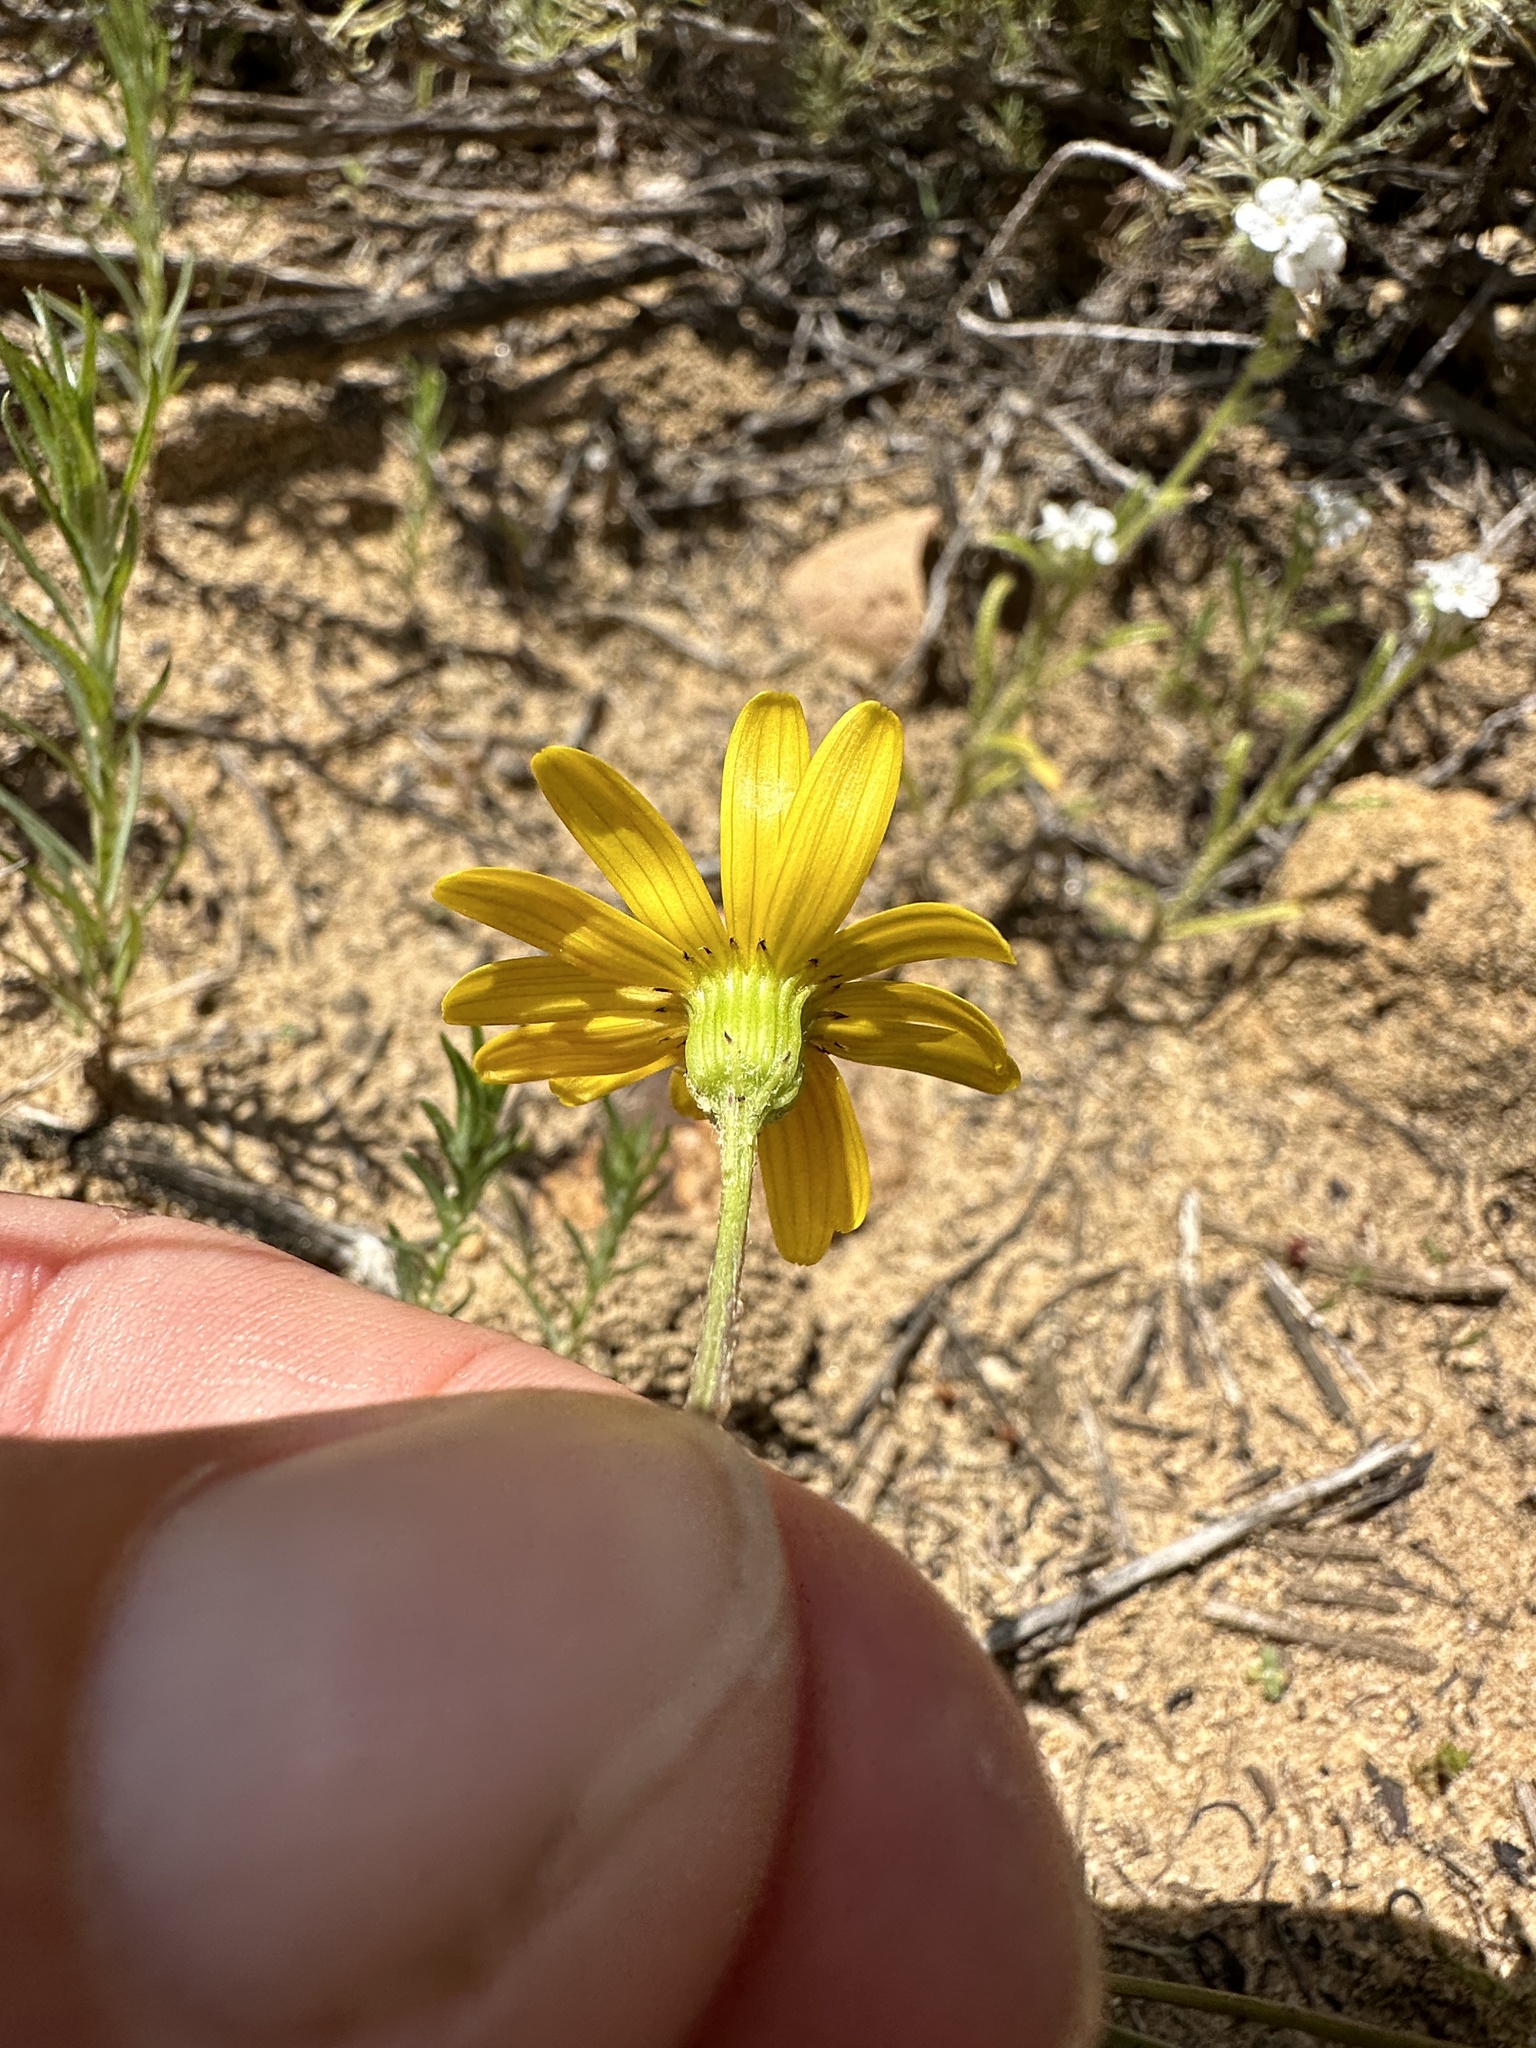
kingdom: Plantae
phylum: Tracheophyta
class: Magnoliopsida
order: Asterales
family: Asteraceae
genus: Senecio
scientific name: Senecio californicus
